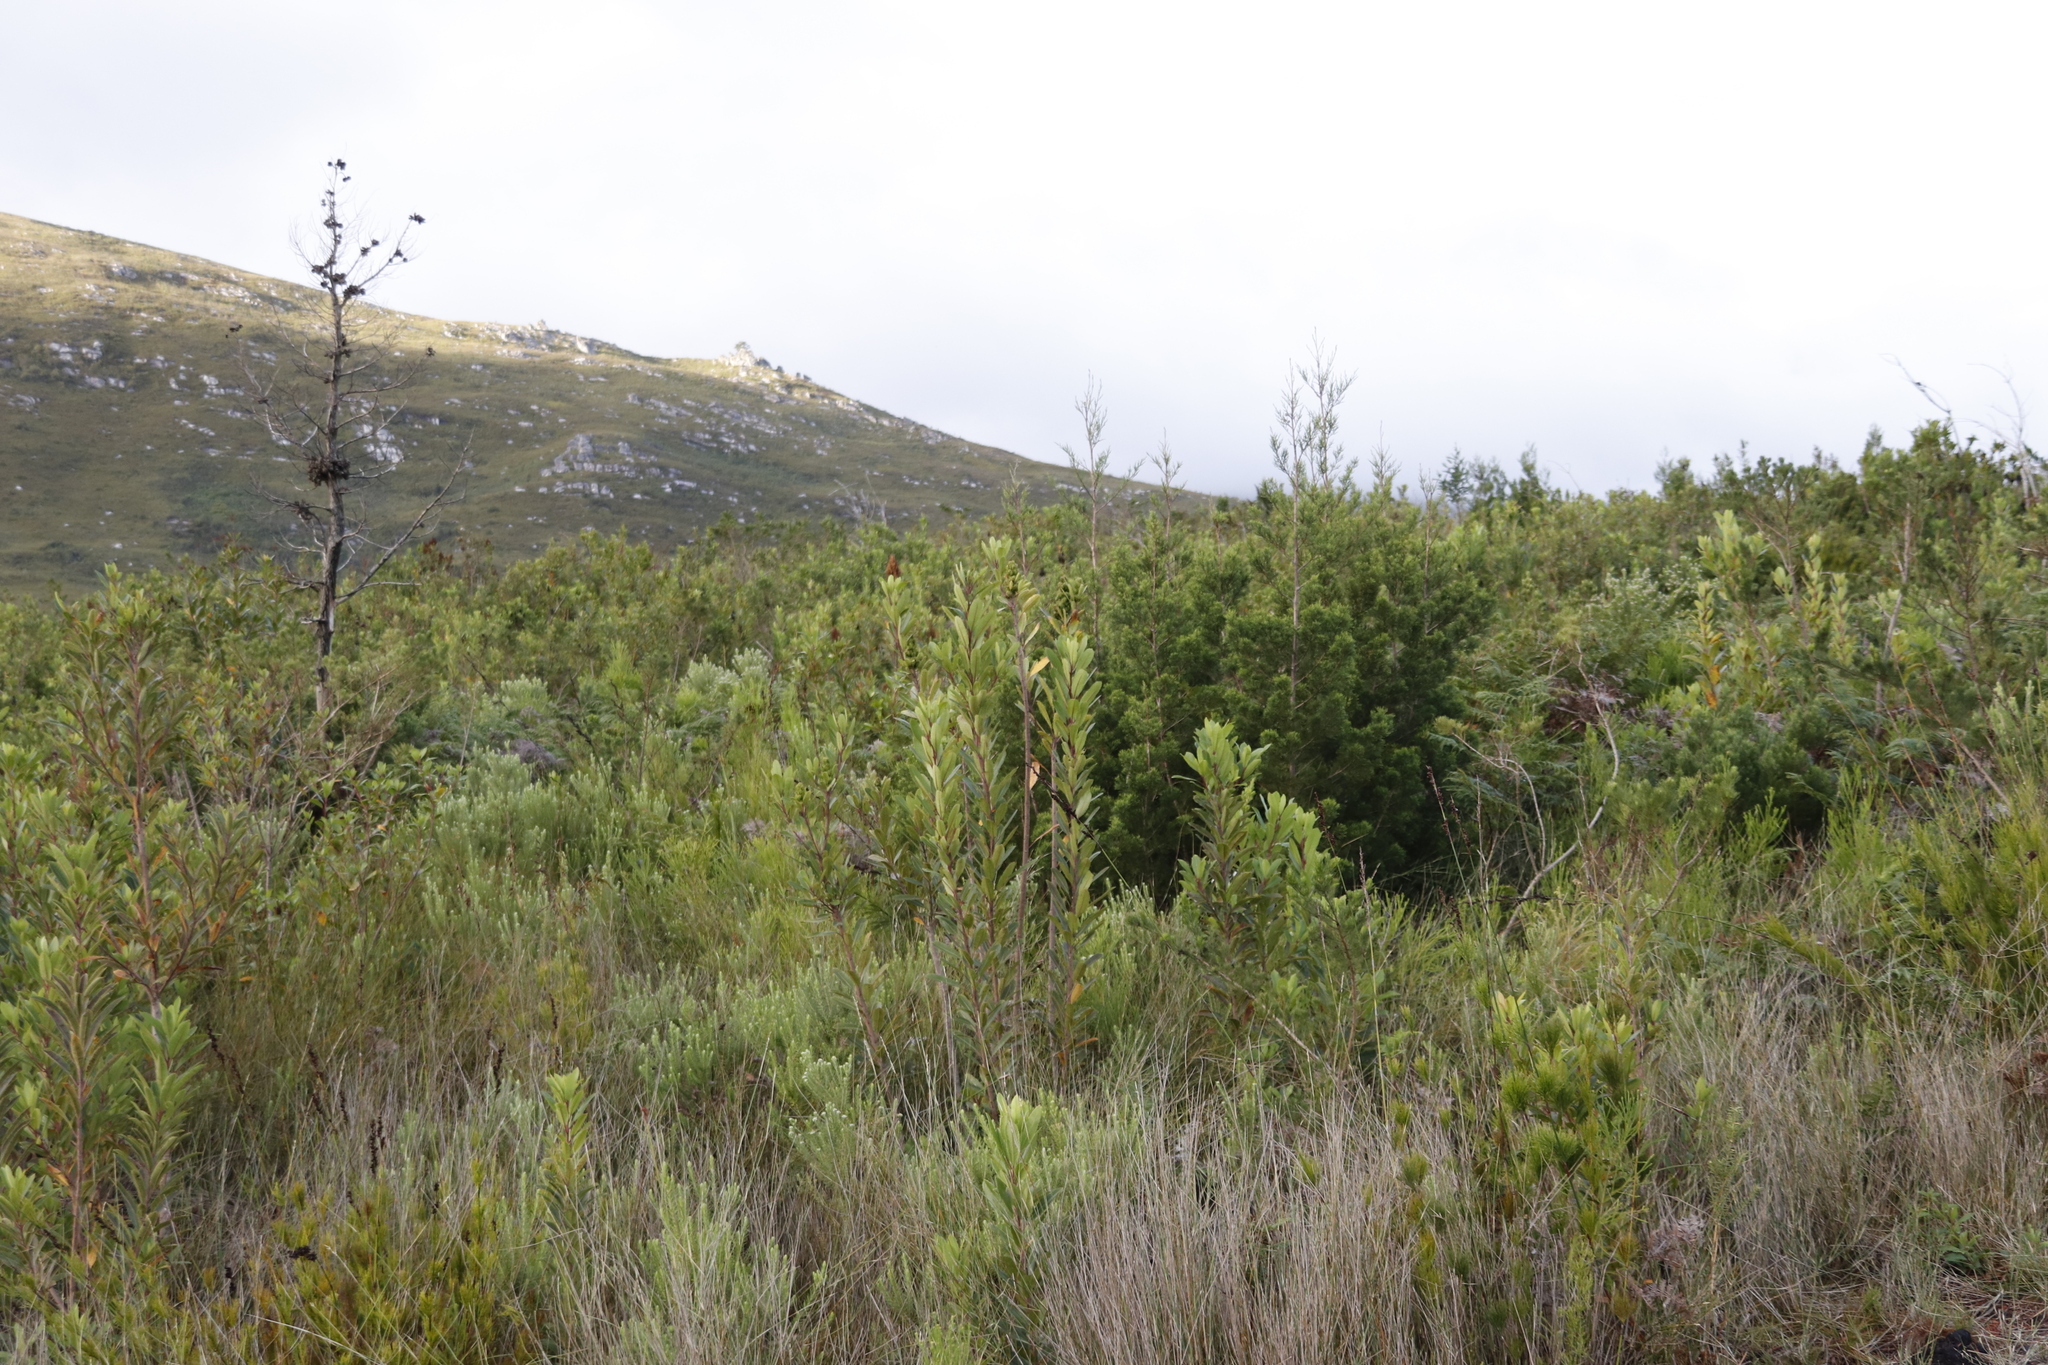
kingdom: Plantae
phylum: Tracheophyta
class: Magnoliopsida
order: Sapindales
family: Anacardiaceae
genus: Laurophyllus
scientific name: Laurophyllus capensis
